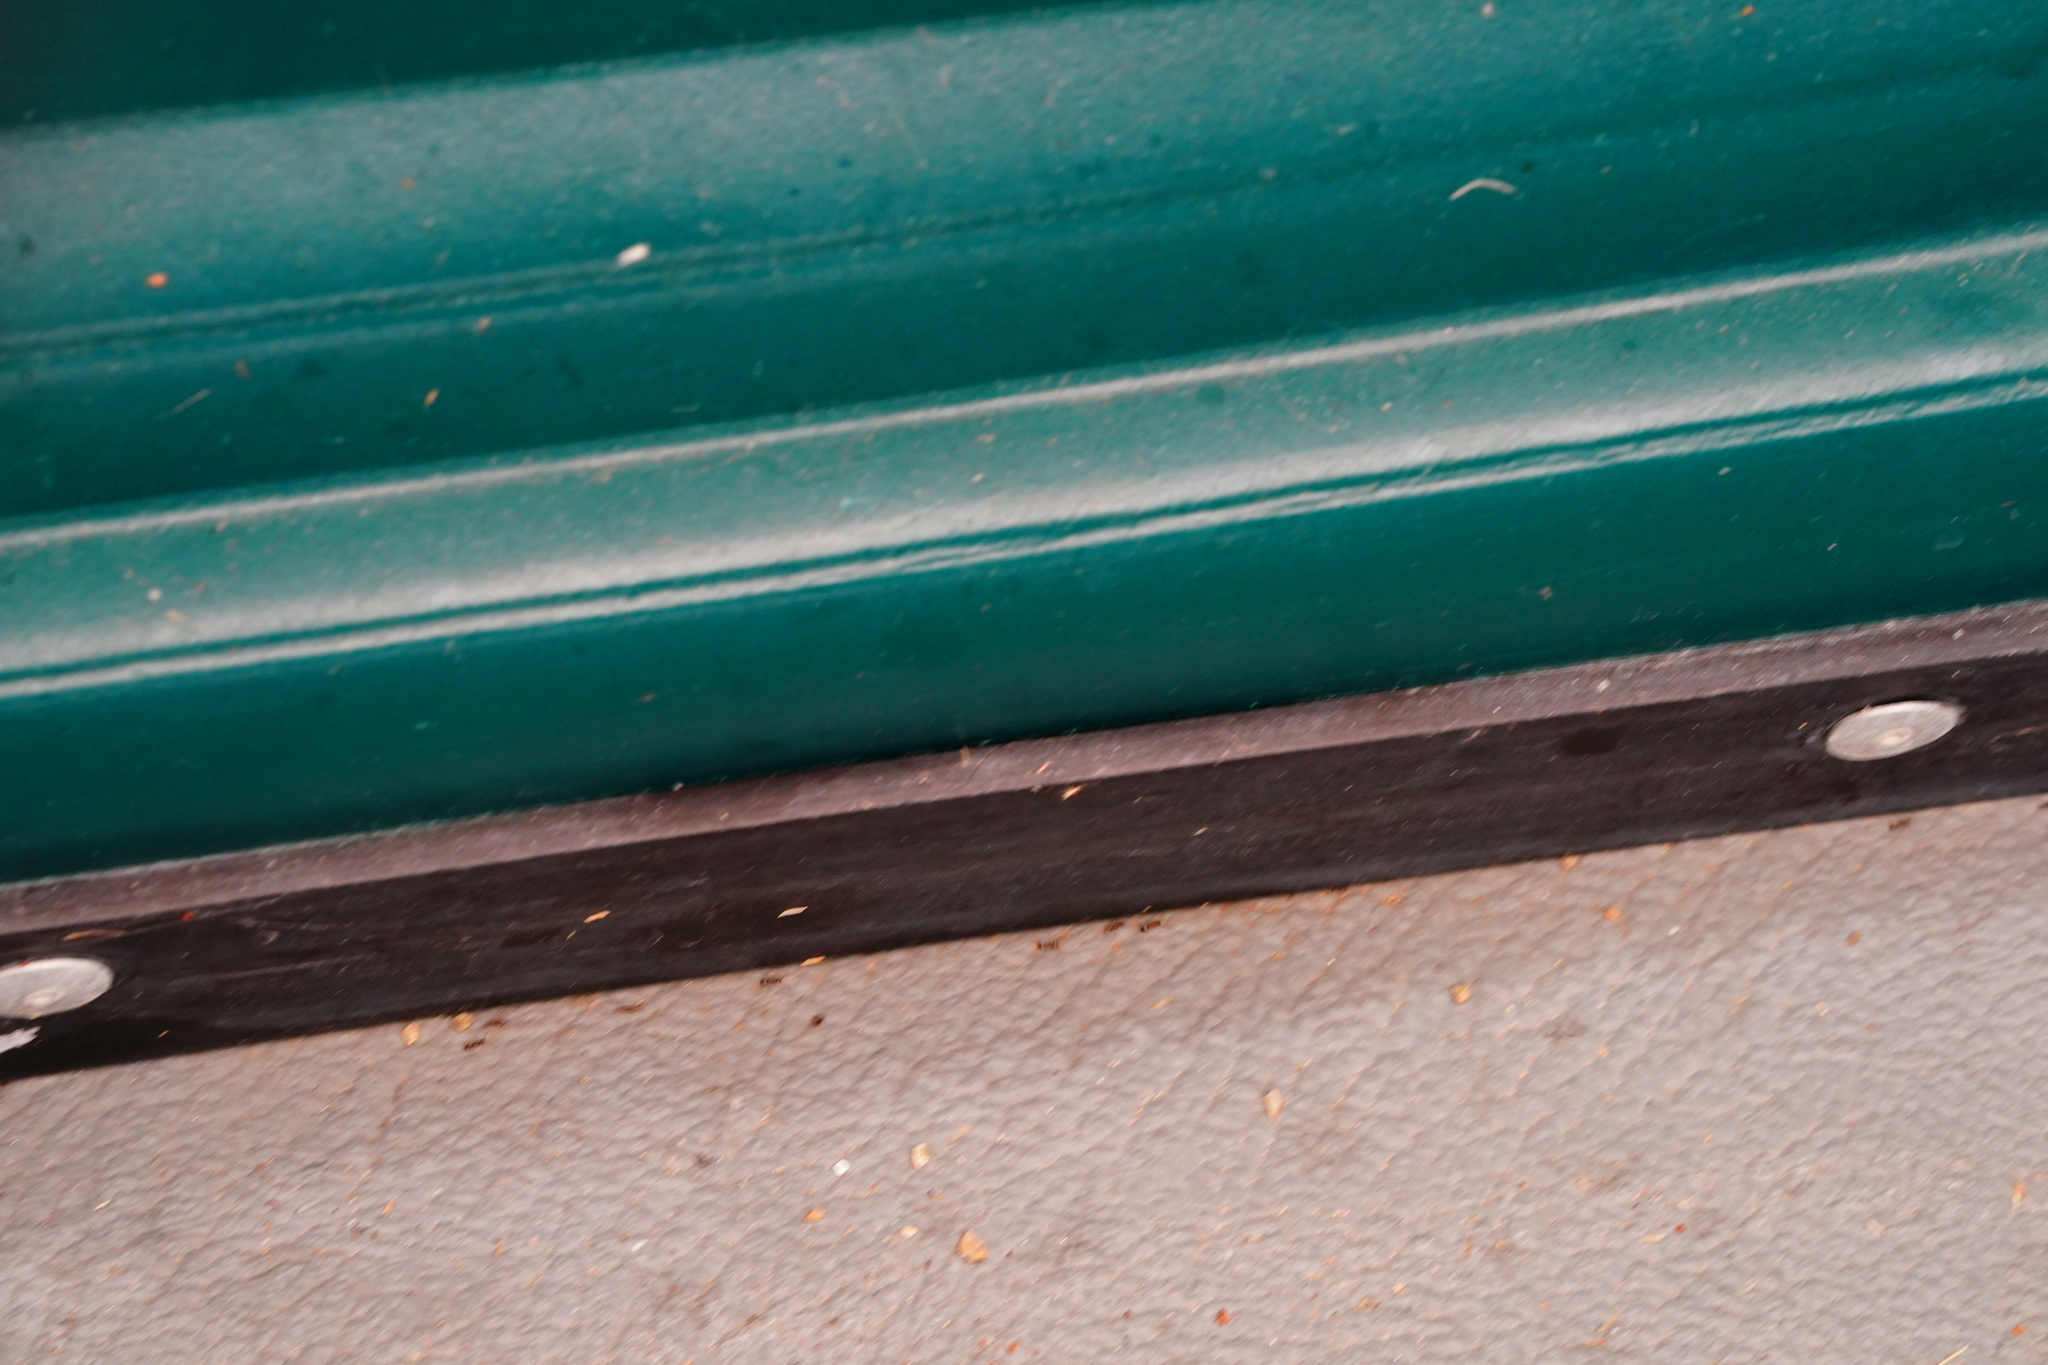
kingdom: Animalia
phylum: Arthropoda
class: Insecta
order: Hymenoptera
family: Formicidae
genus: Linepithema
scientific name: Linepithema humile
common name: Argentine ant
